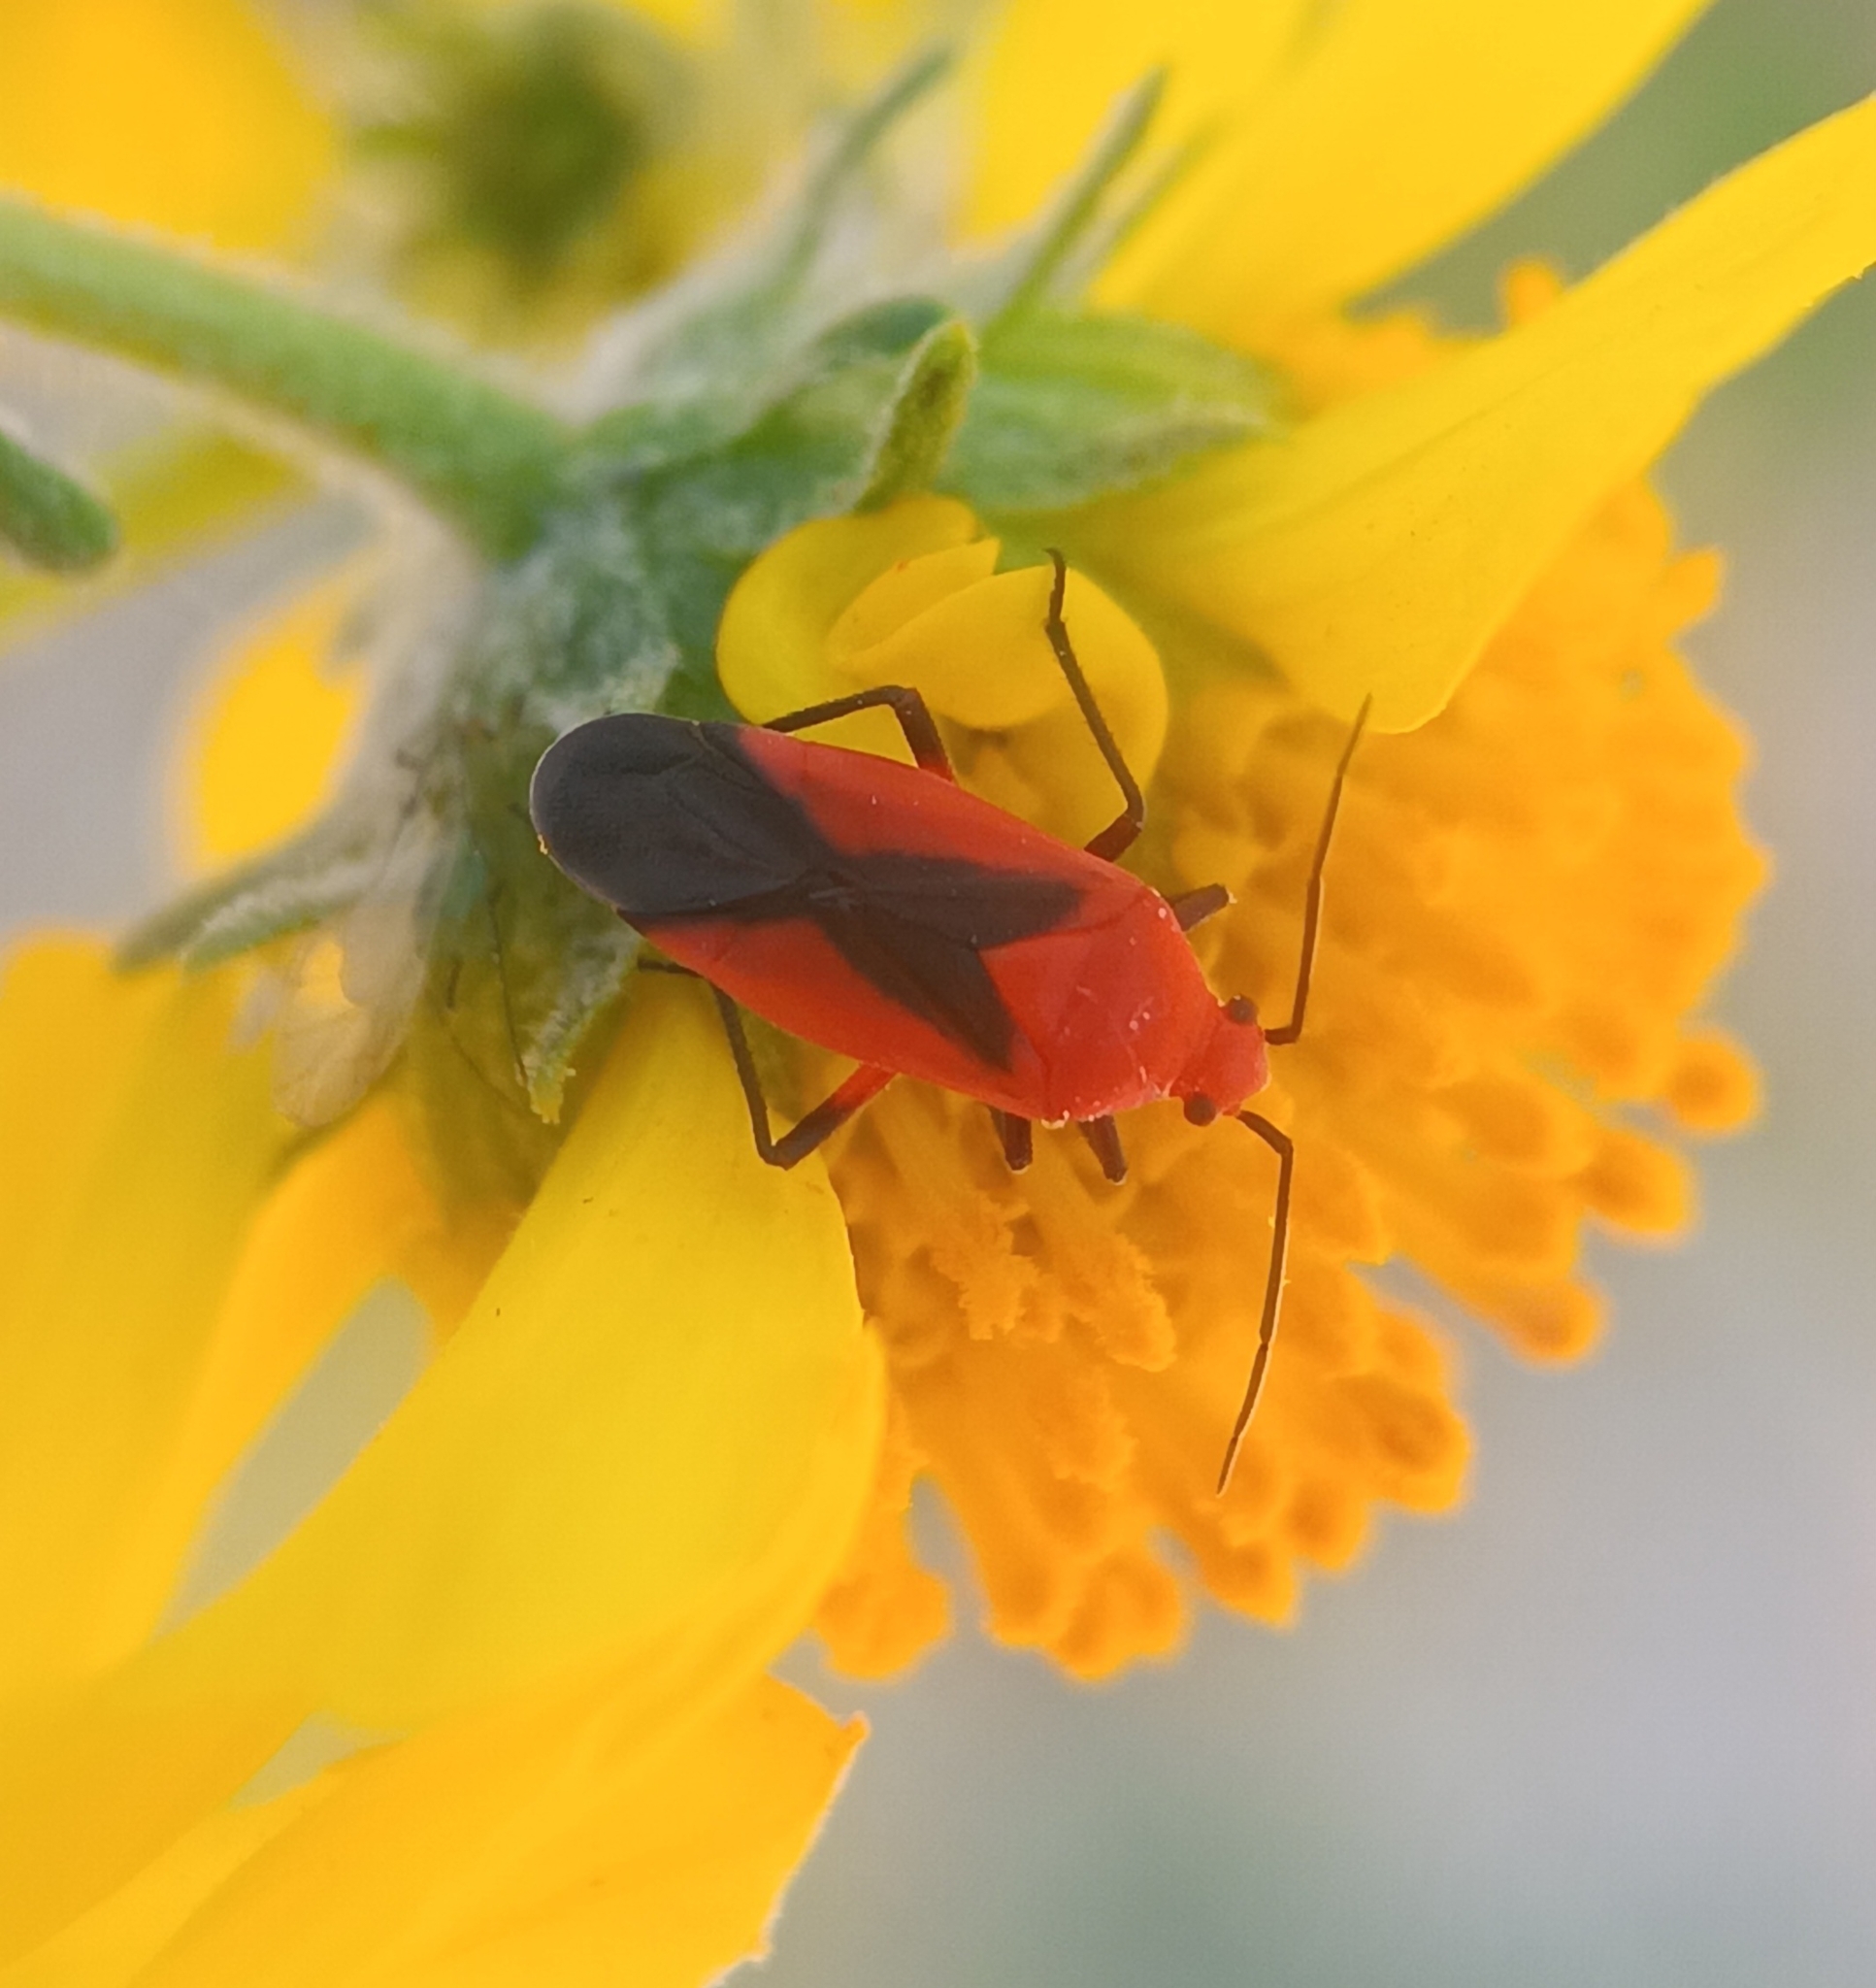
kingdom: Animalia
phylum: Arthropoda
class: Insecta
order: Hemiptera
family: Miridae
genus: Oncerometopus
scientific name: Oncerometopus nigriclavus
